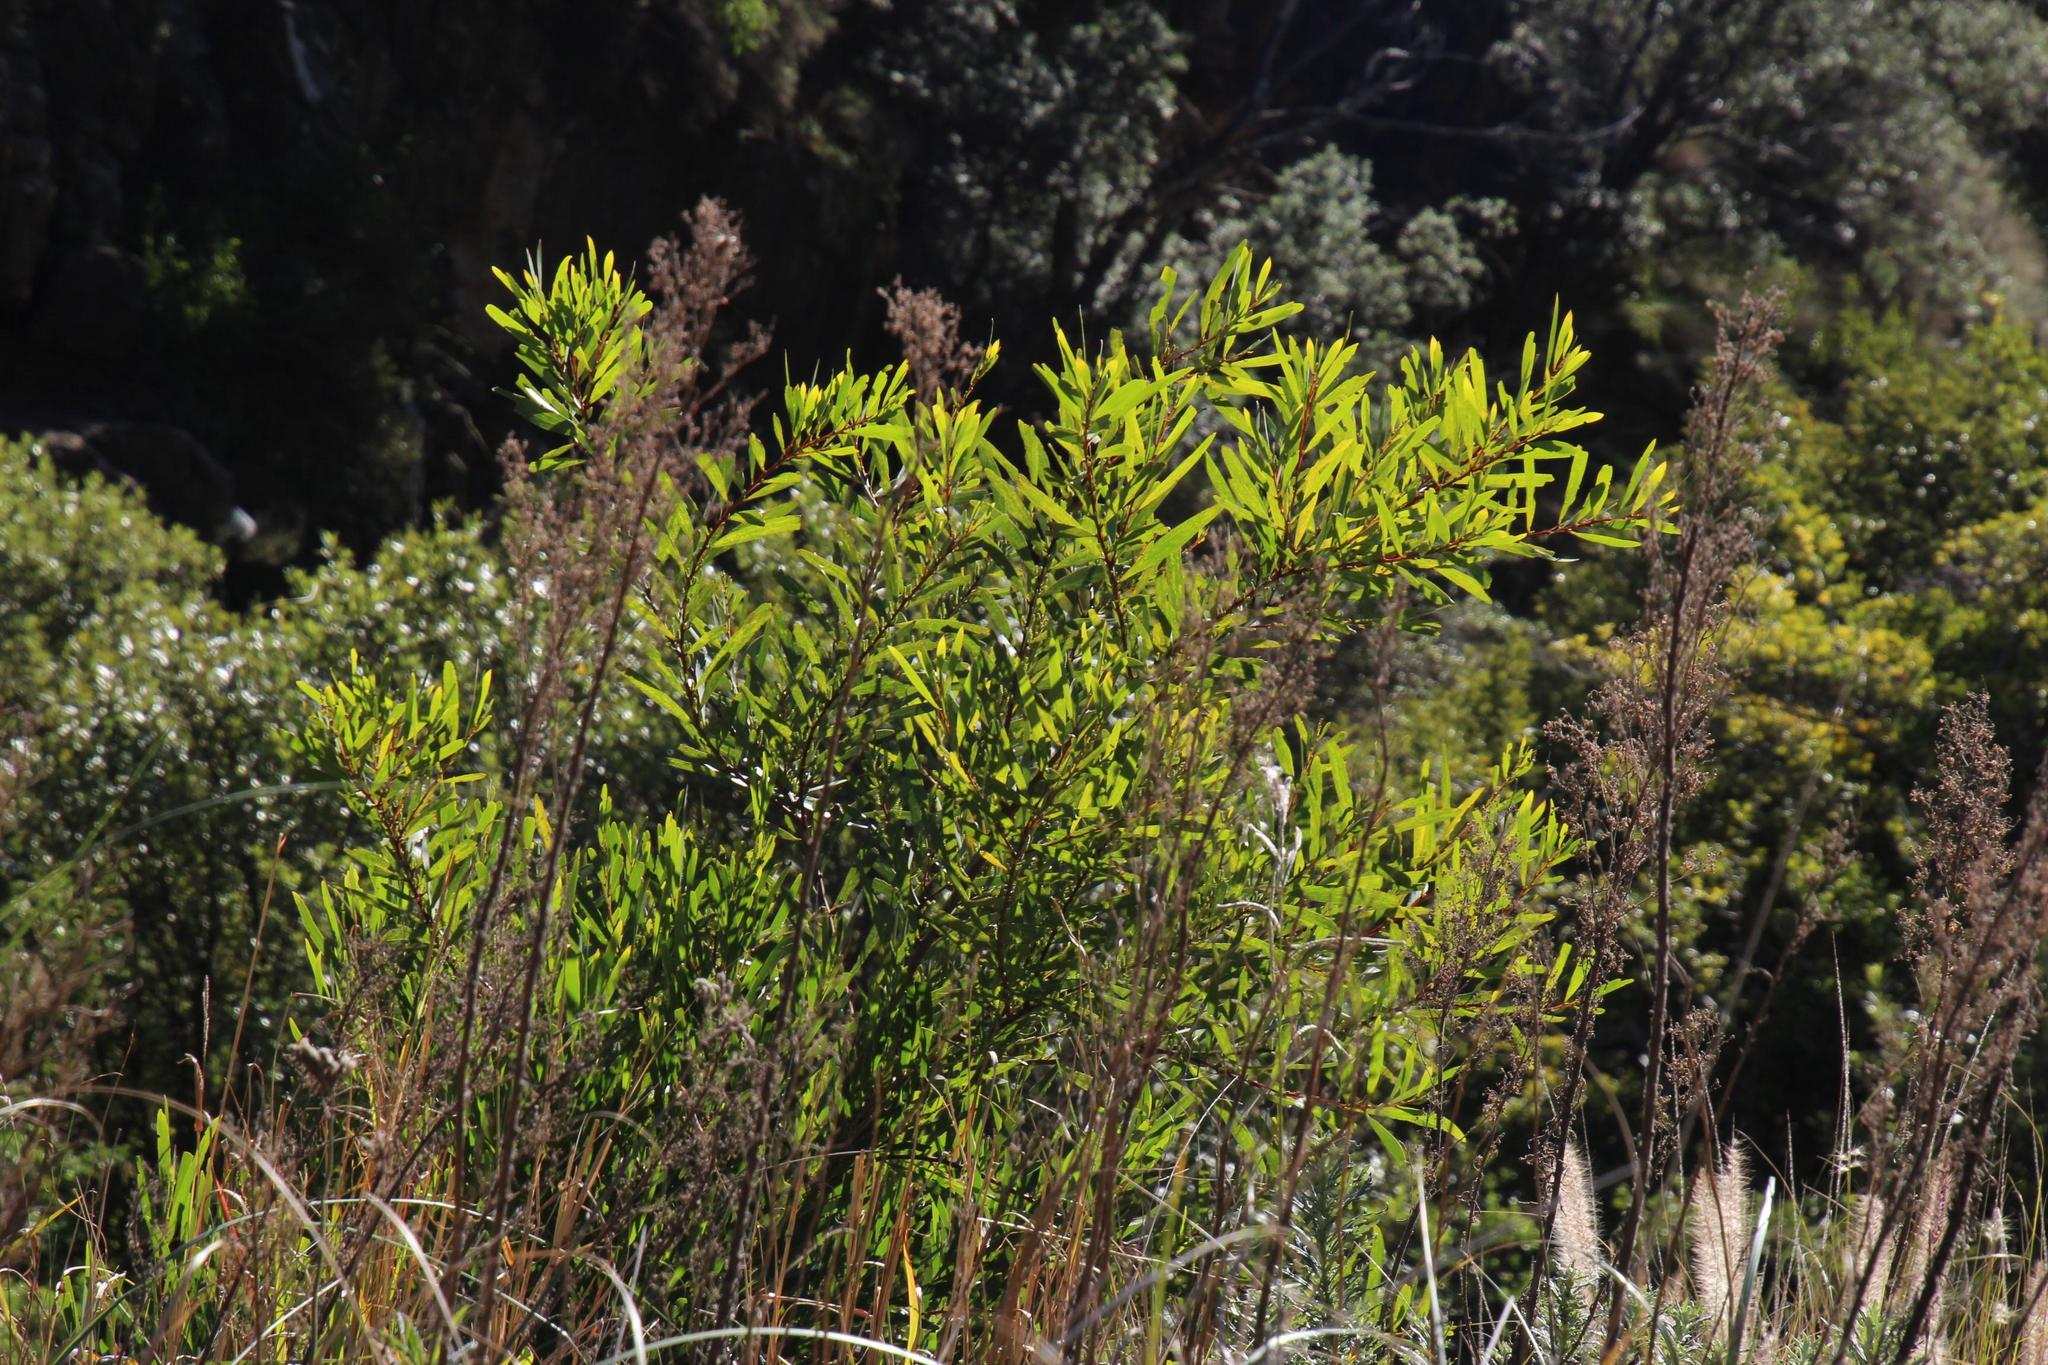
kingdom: Plantae
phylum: Tracheophyta
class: Magnoliopsida
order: Fabales
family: Fabaceae
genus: Acacia
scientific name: Acacia longifolia
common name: Sydney golden wattle
